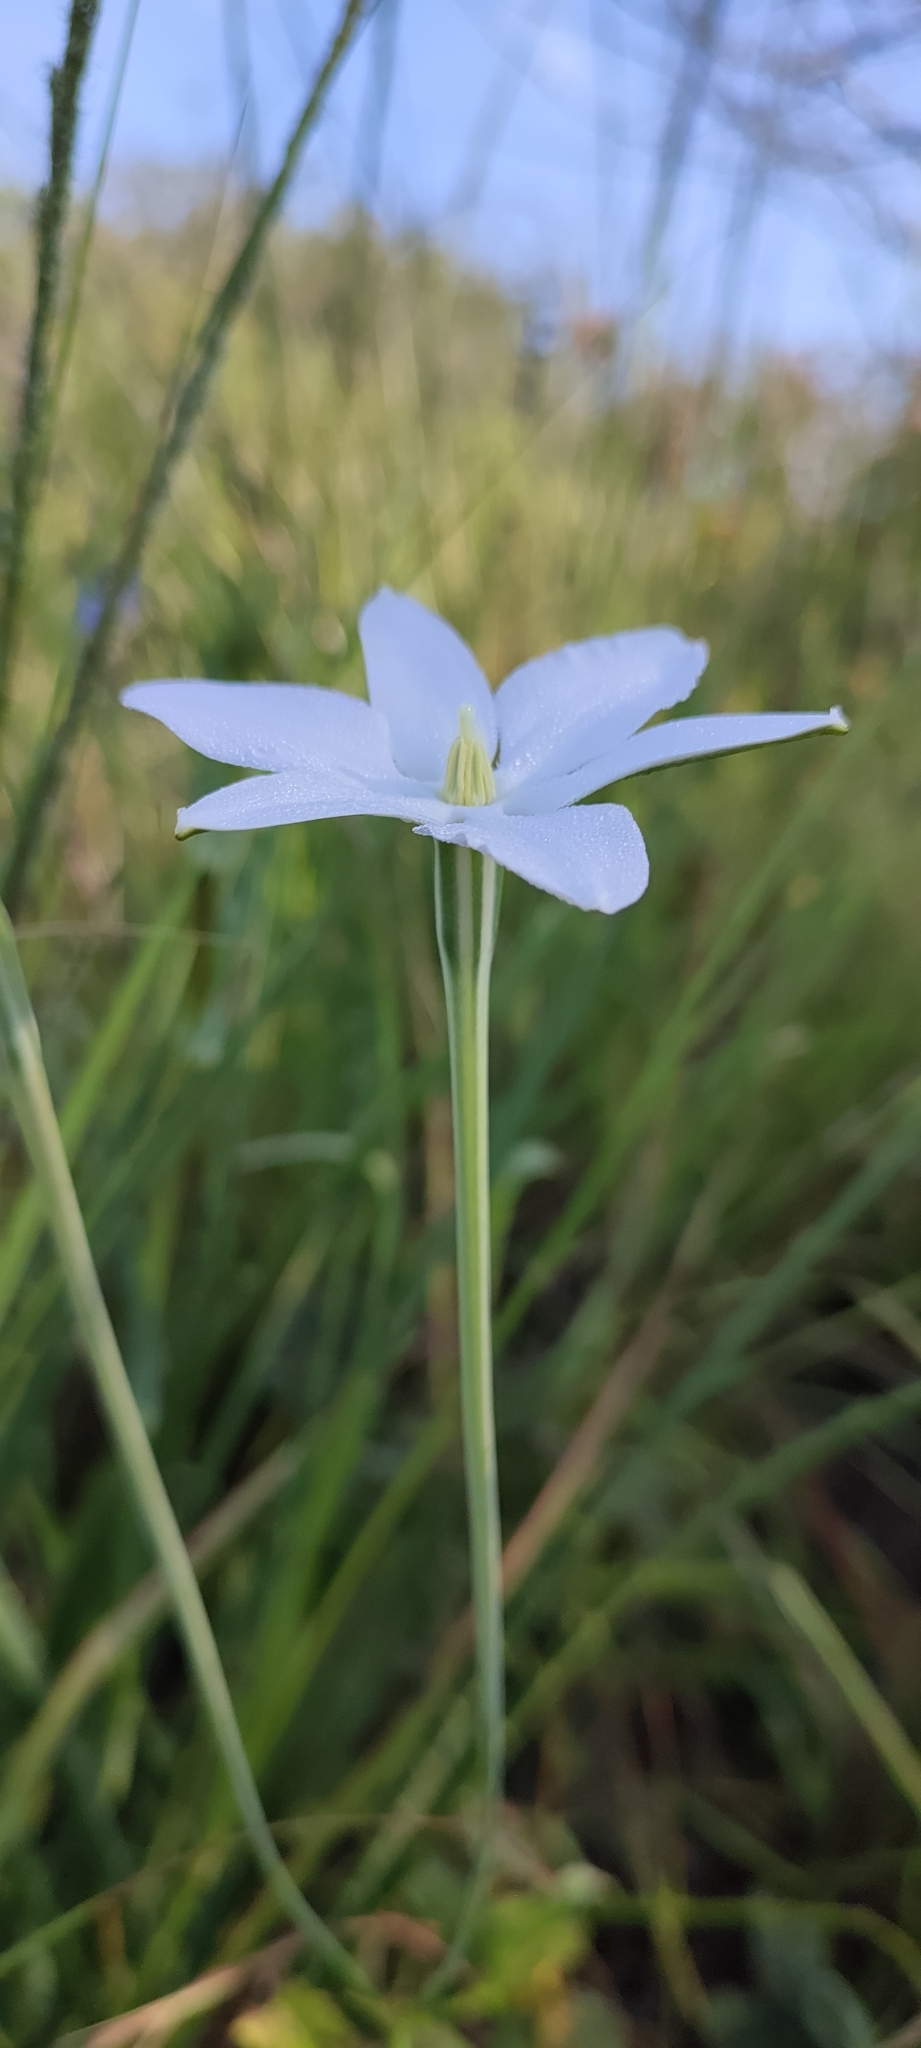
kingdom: Plantae
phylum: Tracheophyta
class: Liliopsida
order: Asparagales
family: Asparagaceae
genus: Milla
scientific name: Milla biflora
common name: Mexican-star
